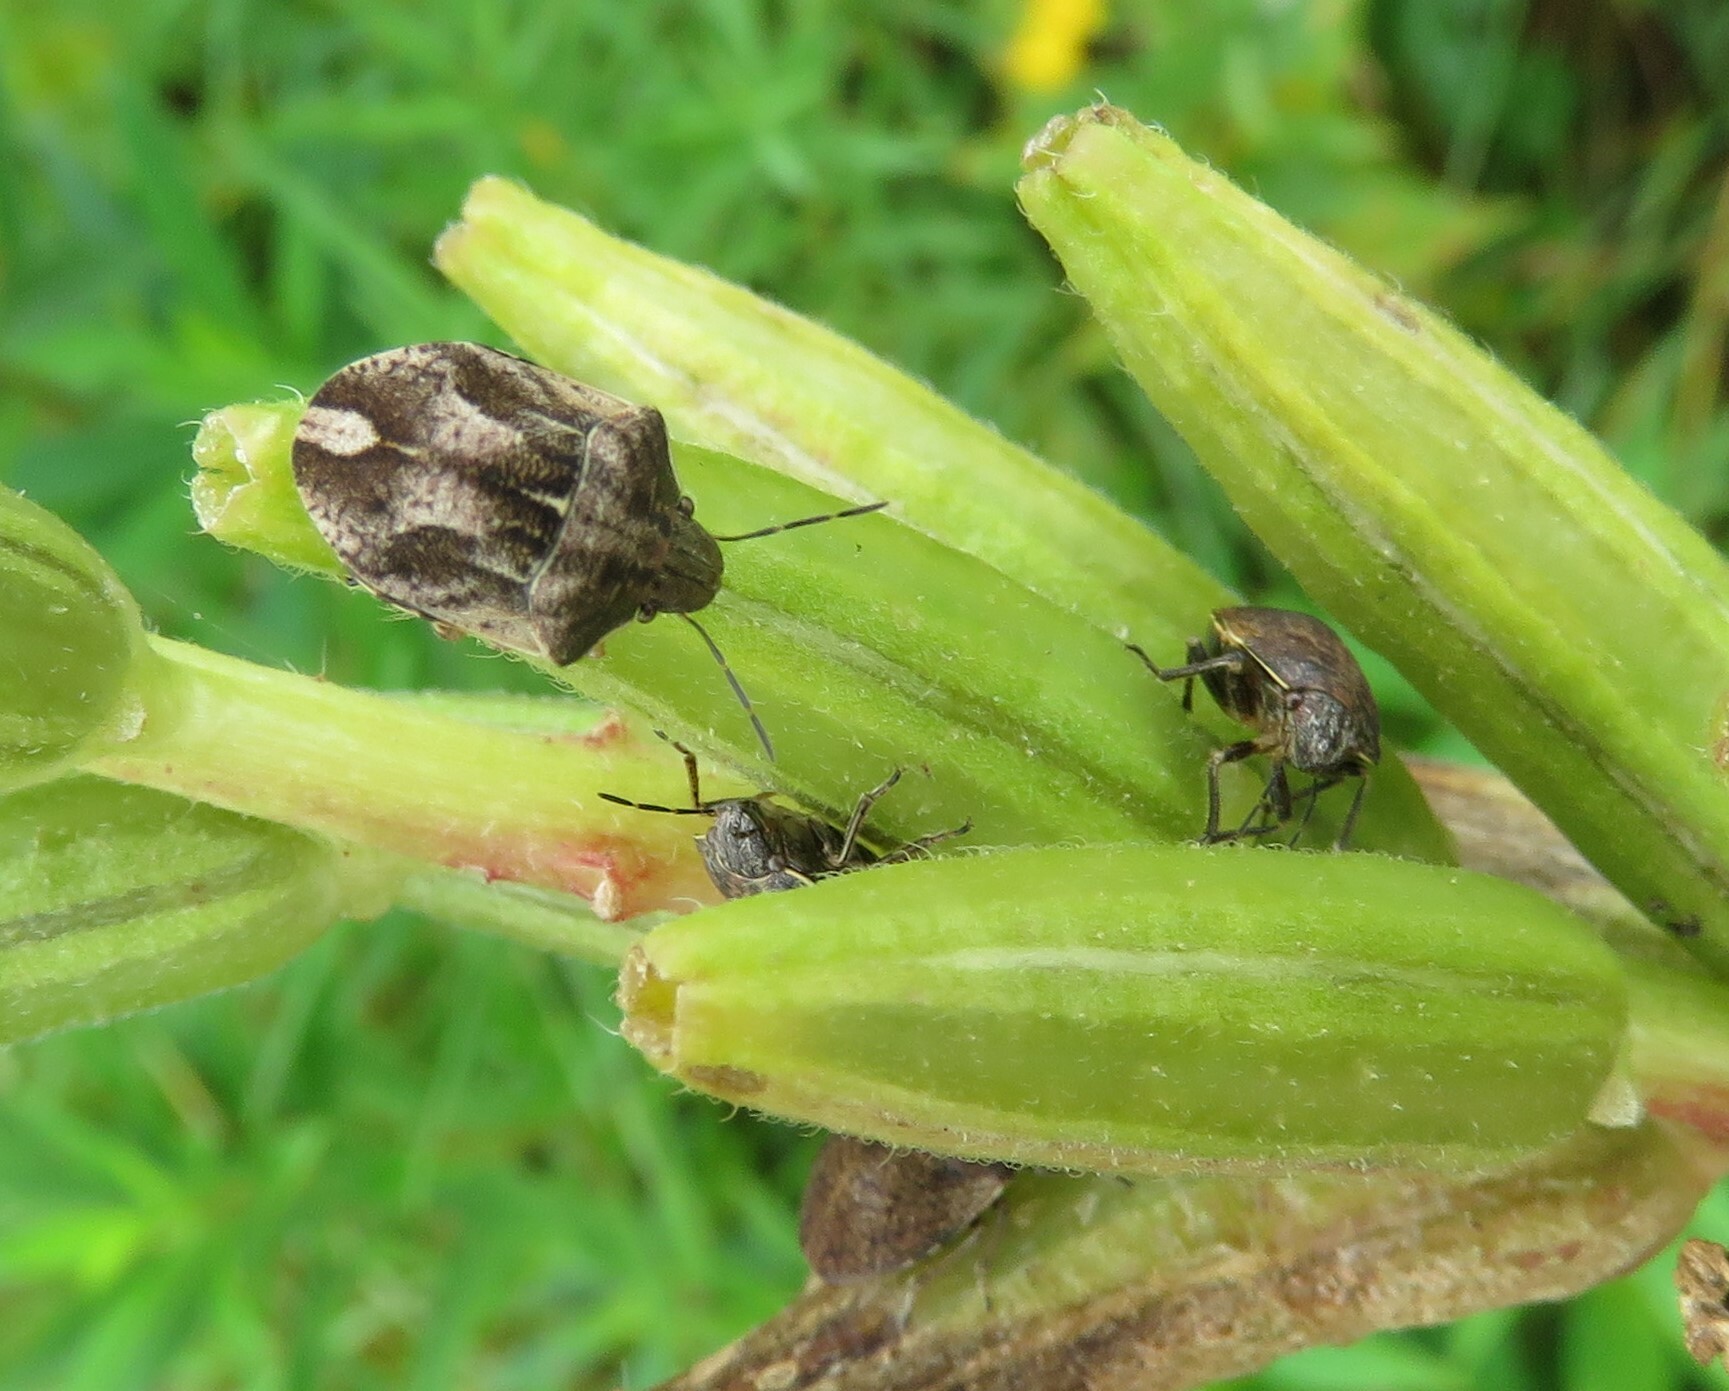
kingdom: Animalia
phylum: Arthropoda
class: Insecta
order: Hemiptera
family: Scutelleridae
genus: Homaemus
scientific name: Homaemus aeneifrons
